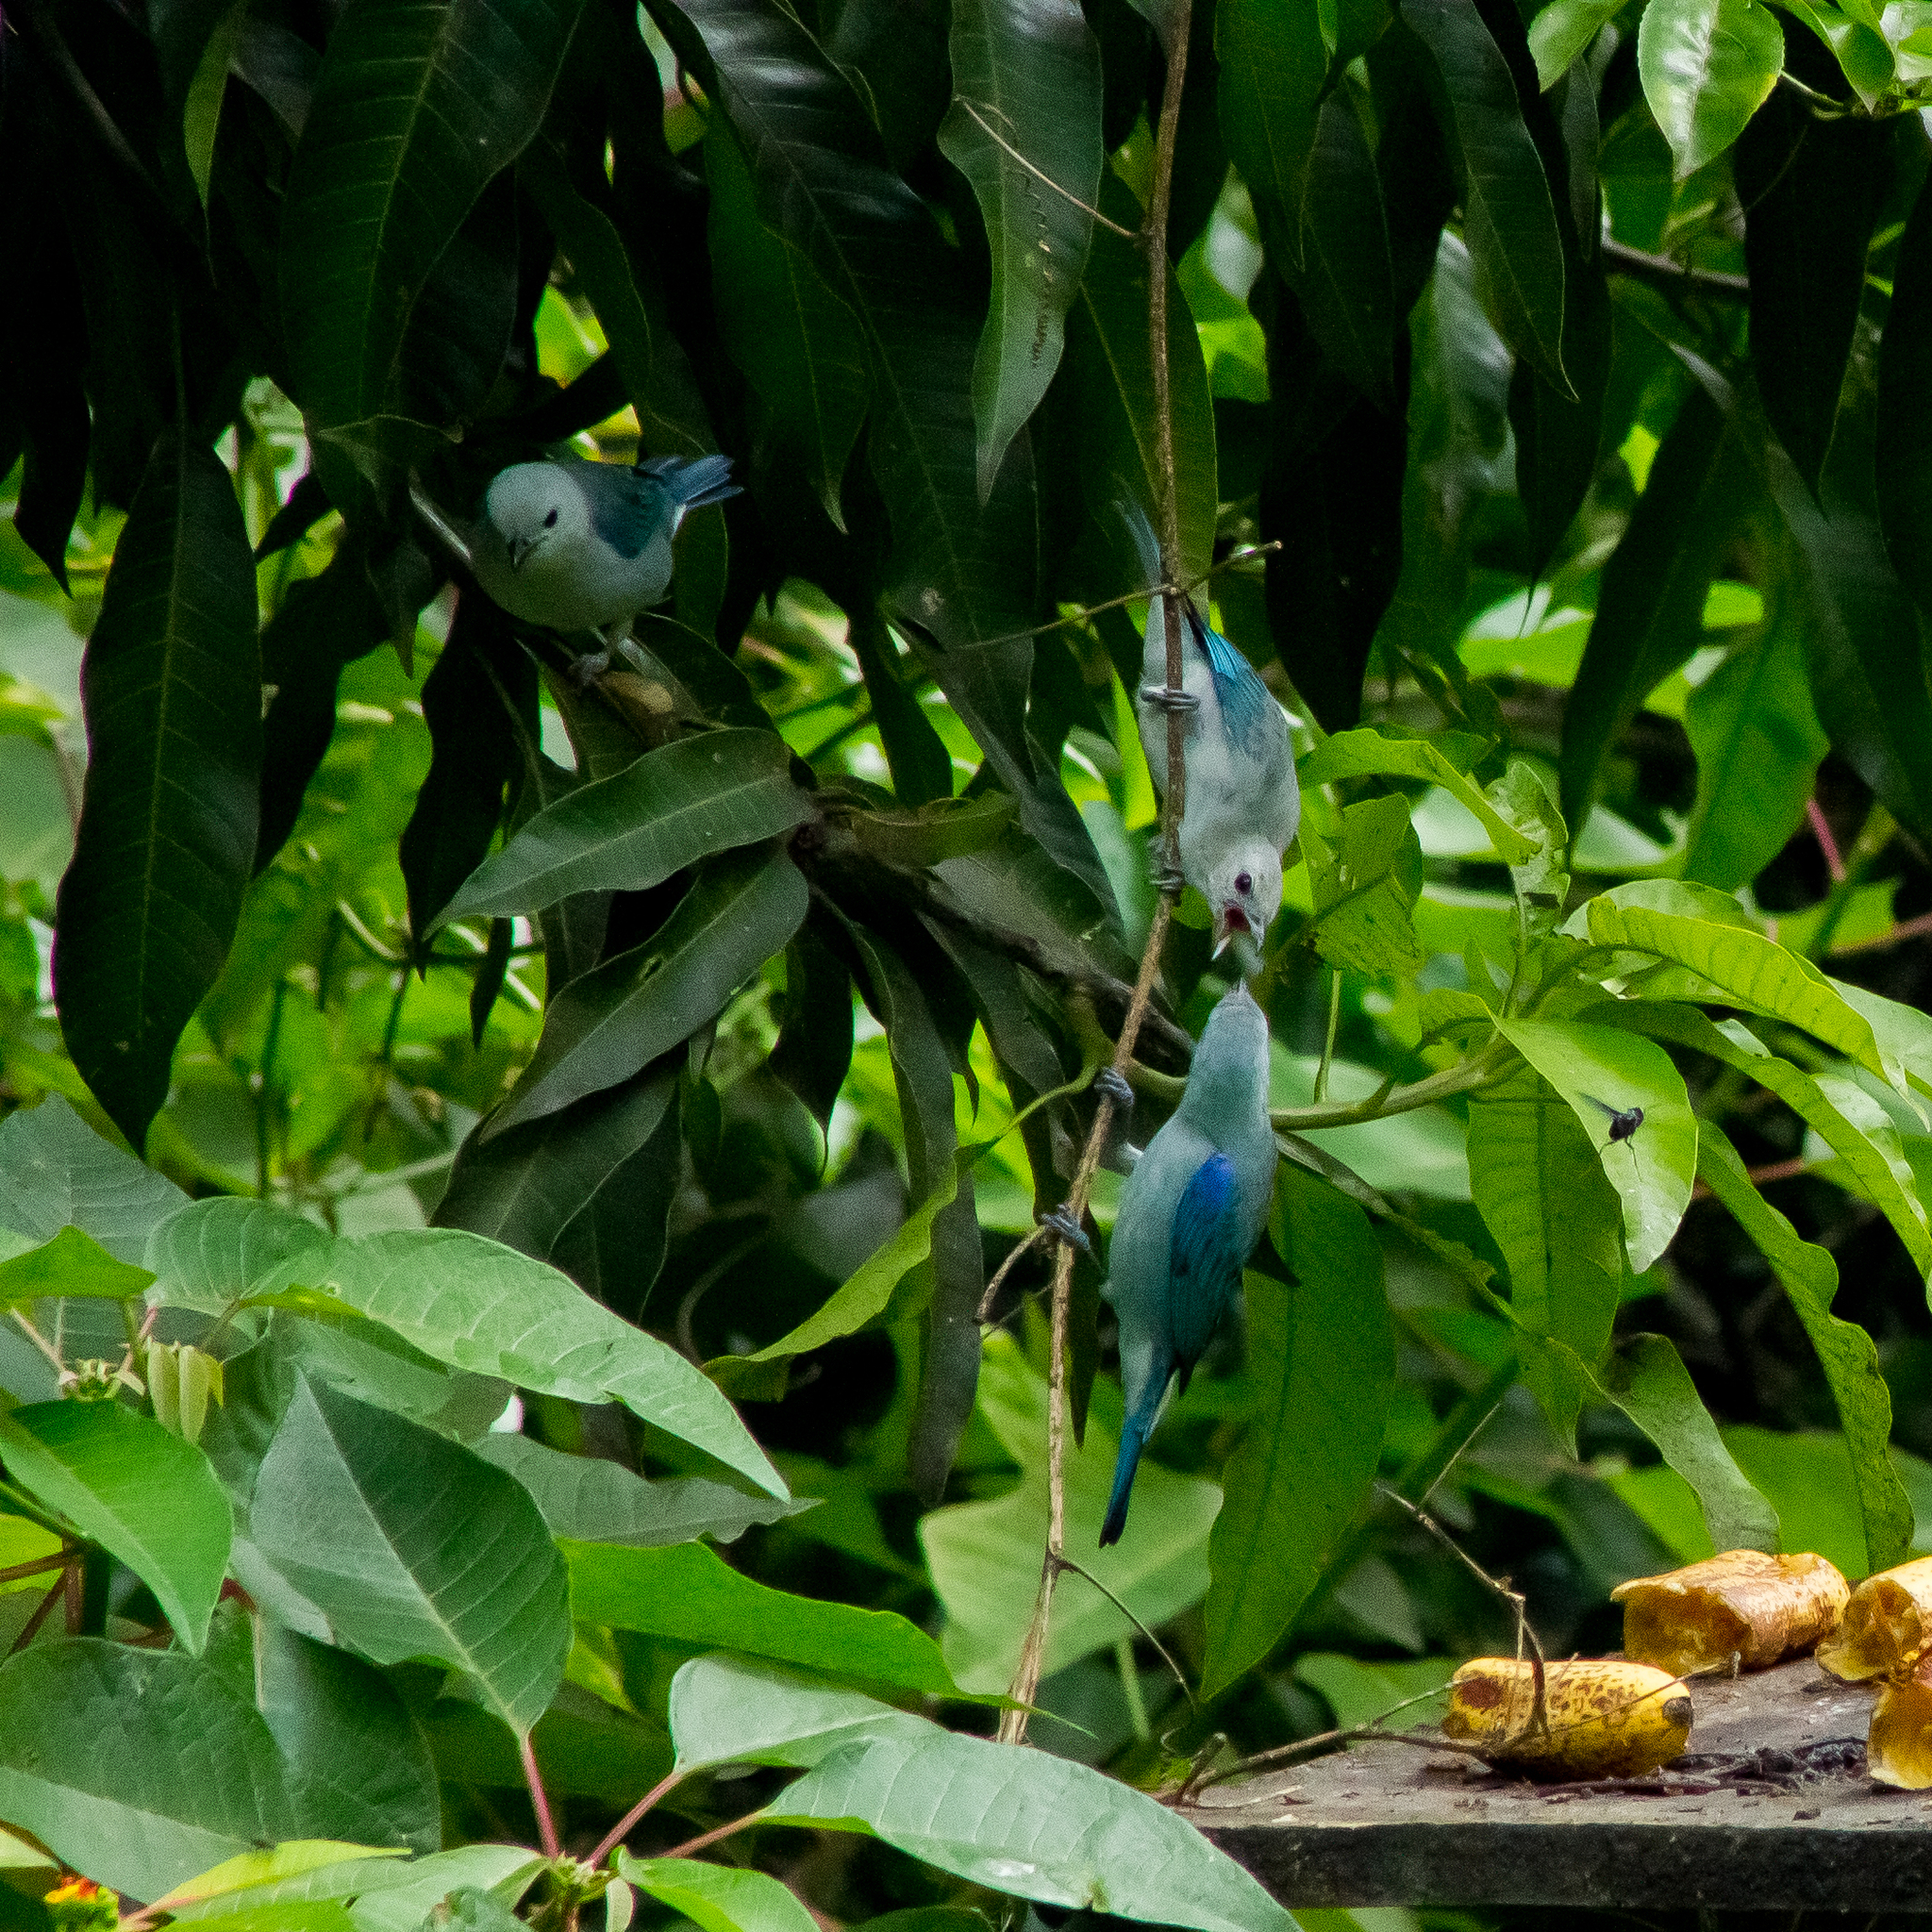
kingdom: Animalia
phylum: Chordata
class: Aves
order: Passeriformes
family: Thraupidae
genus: Thraupis
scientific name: Thraupis episcopus
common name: Blue-grey tanager
